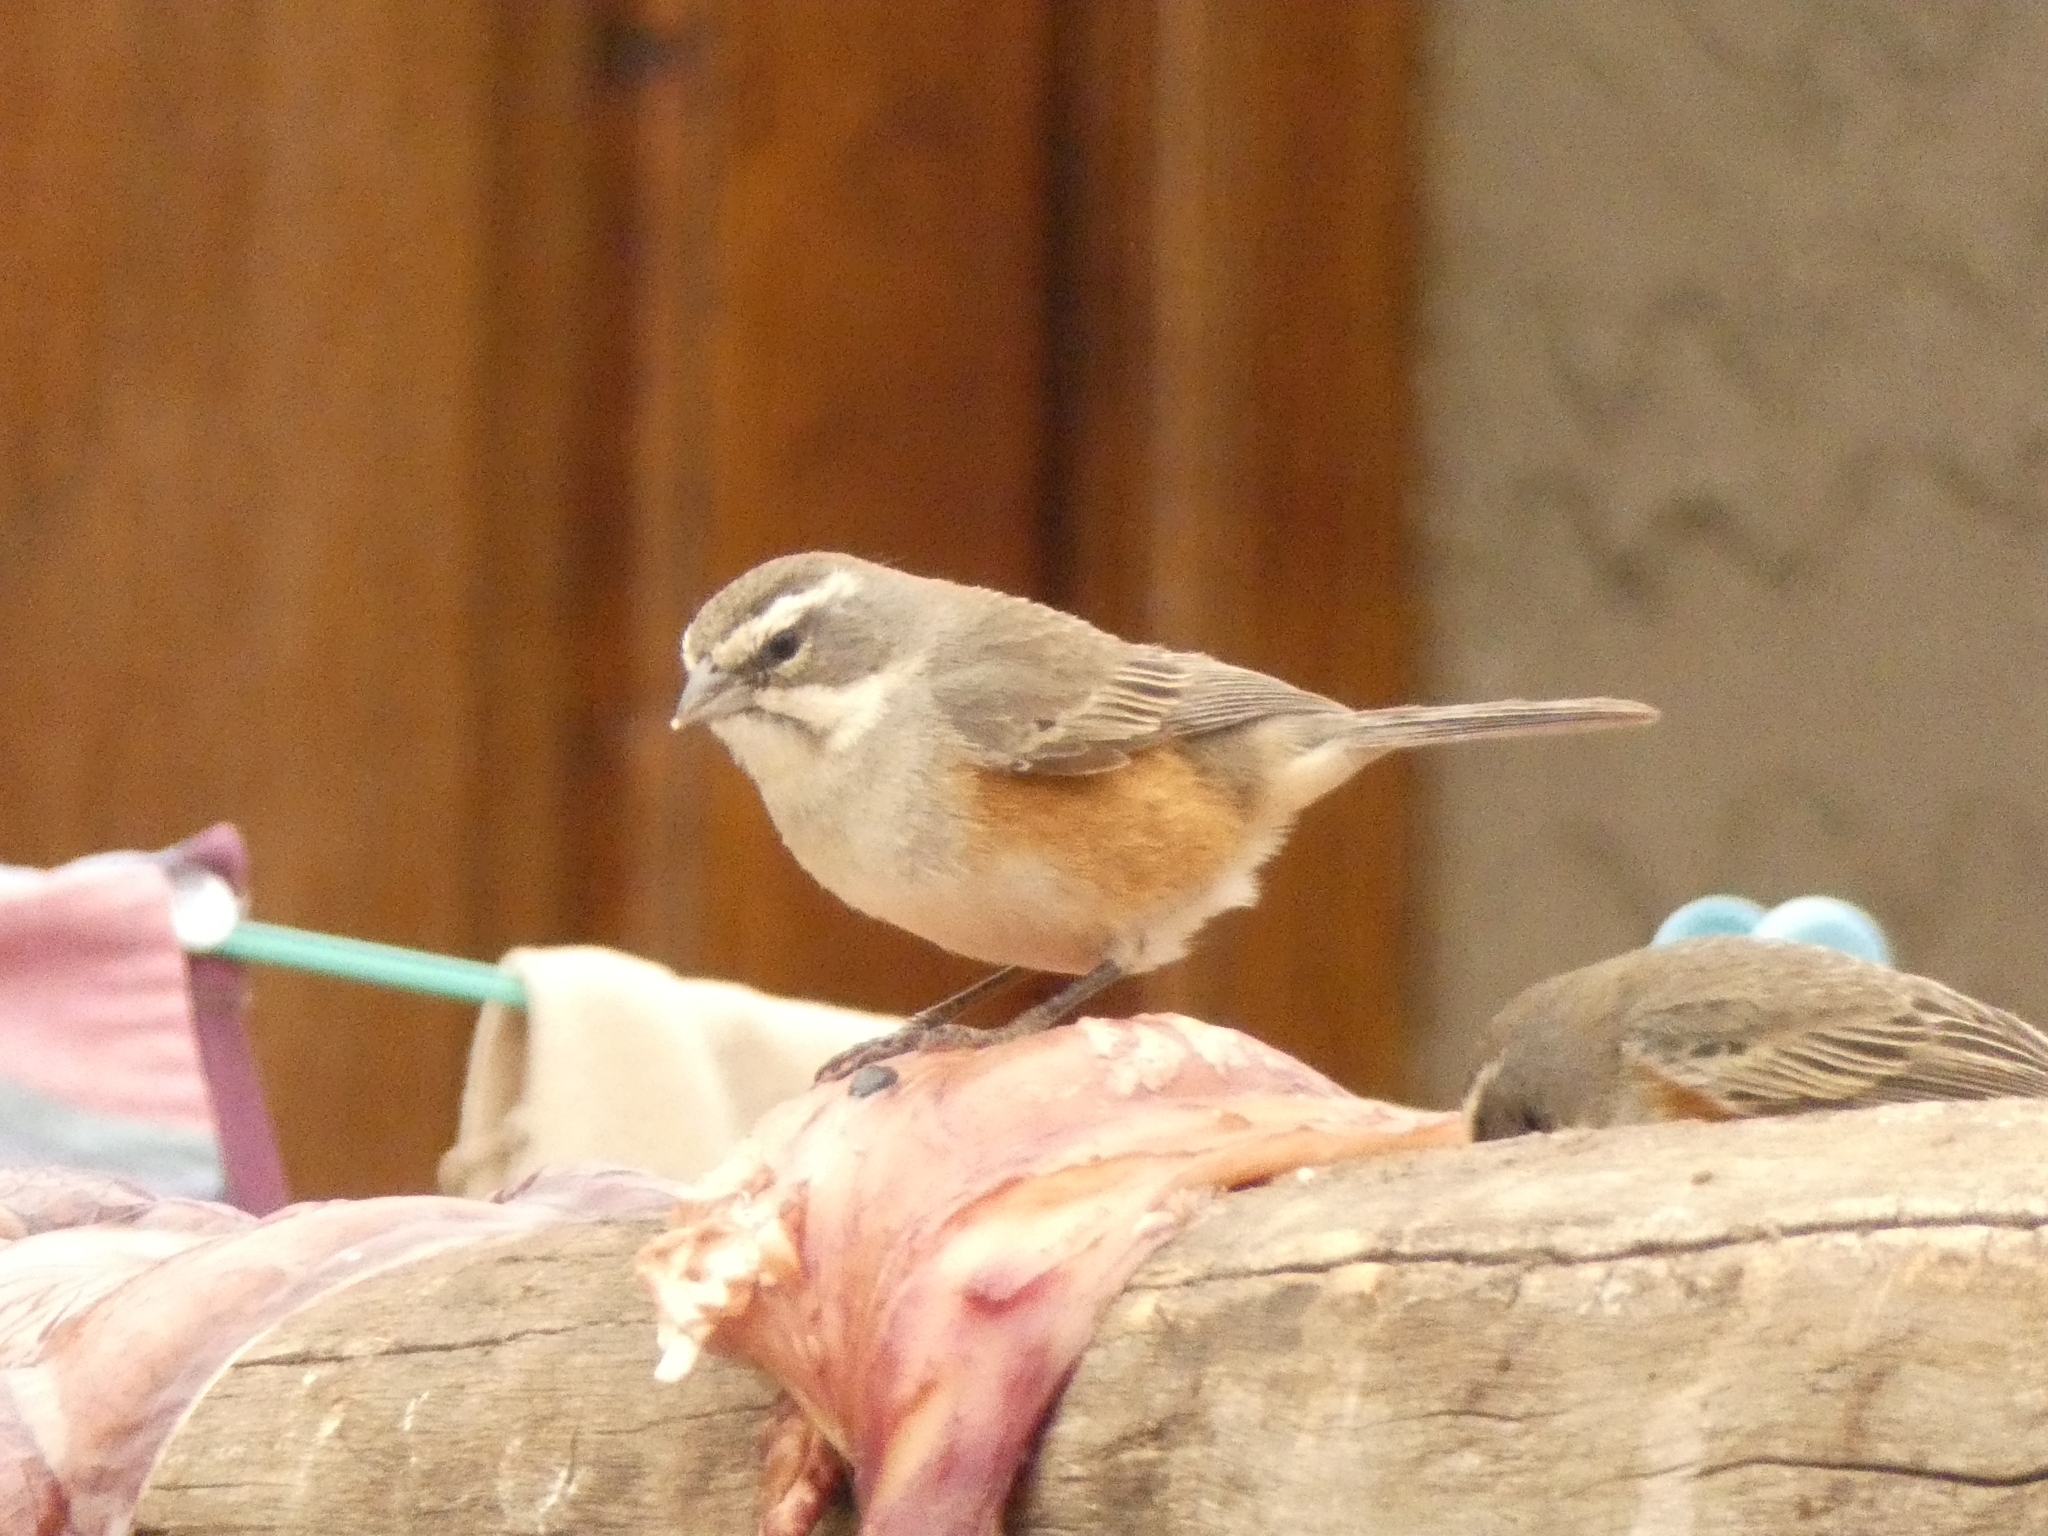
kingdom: Animalia
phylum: Chordata
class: Aves
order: Passeriformes
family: Thraupidae
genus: Poospizopsis
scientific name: Poospizopsis hypocondria
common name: Rufous-sided warbling-finch
